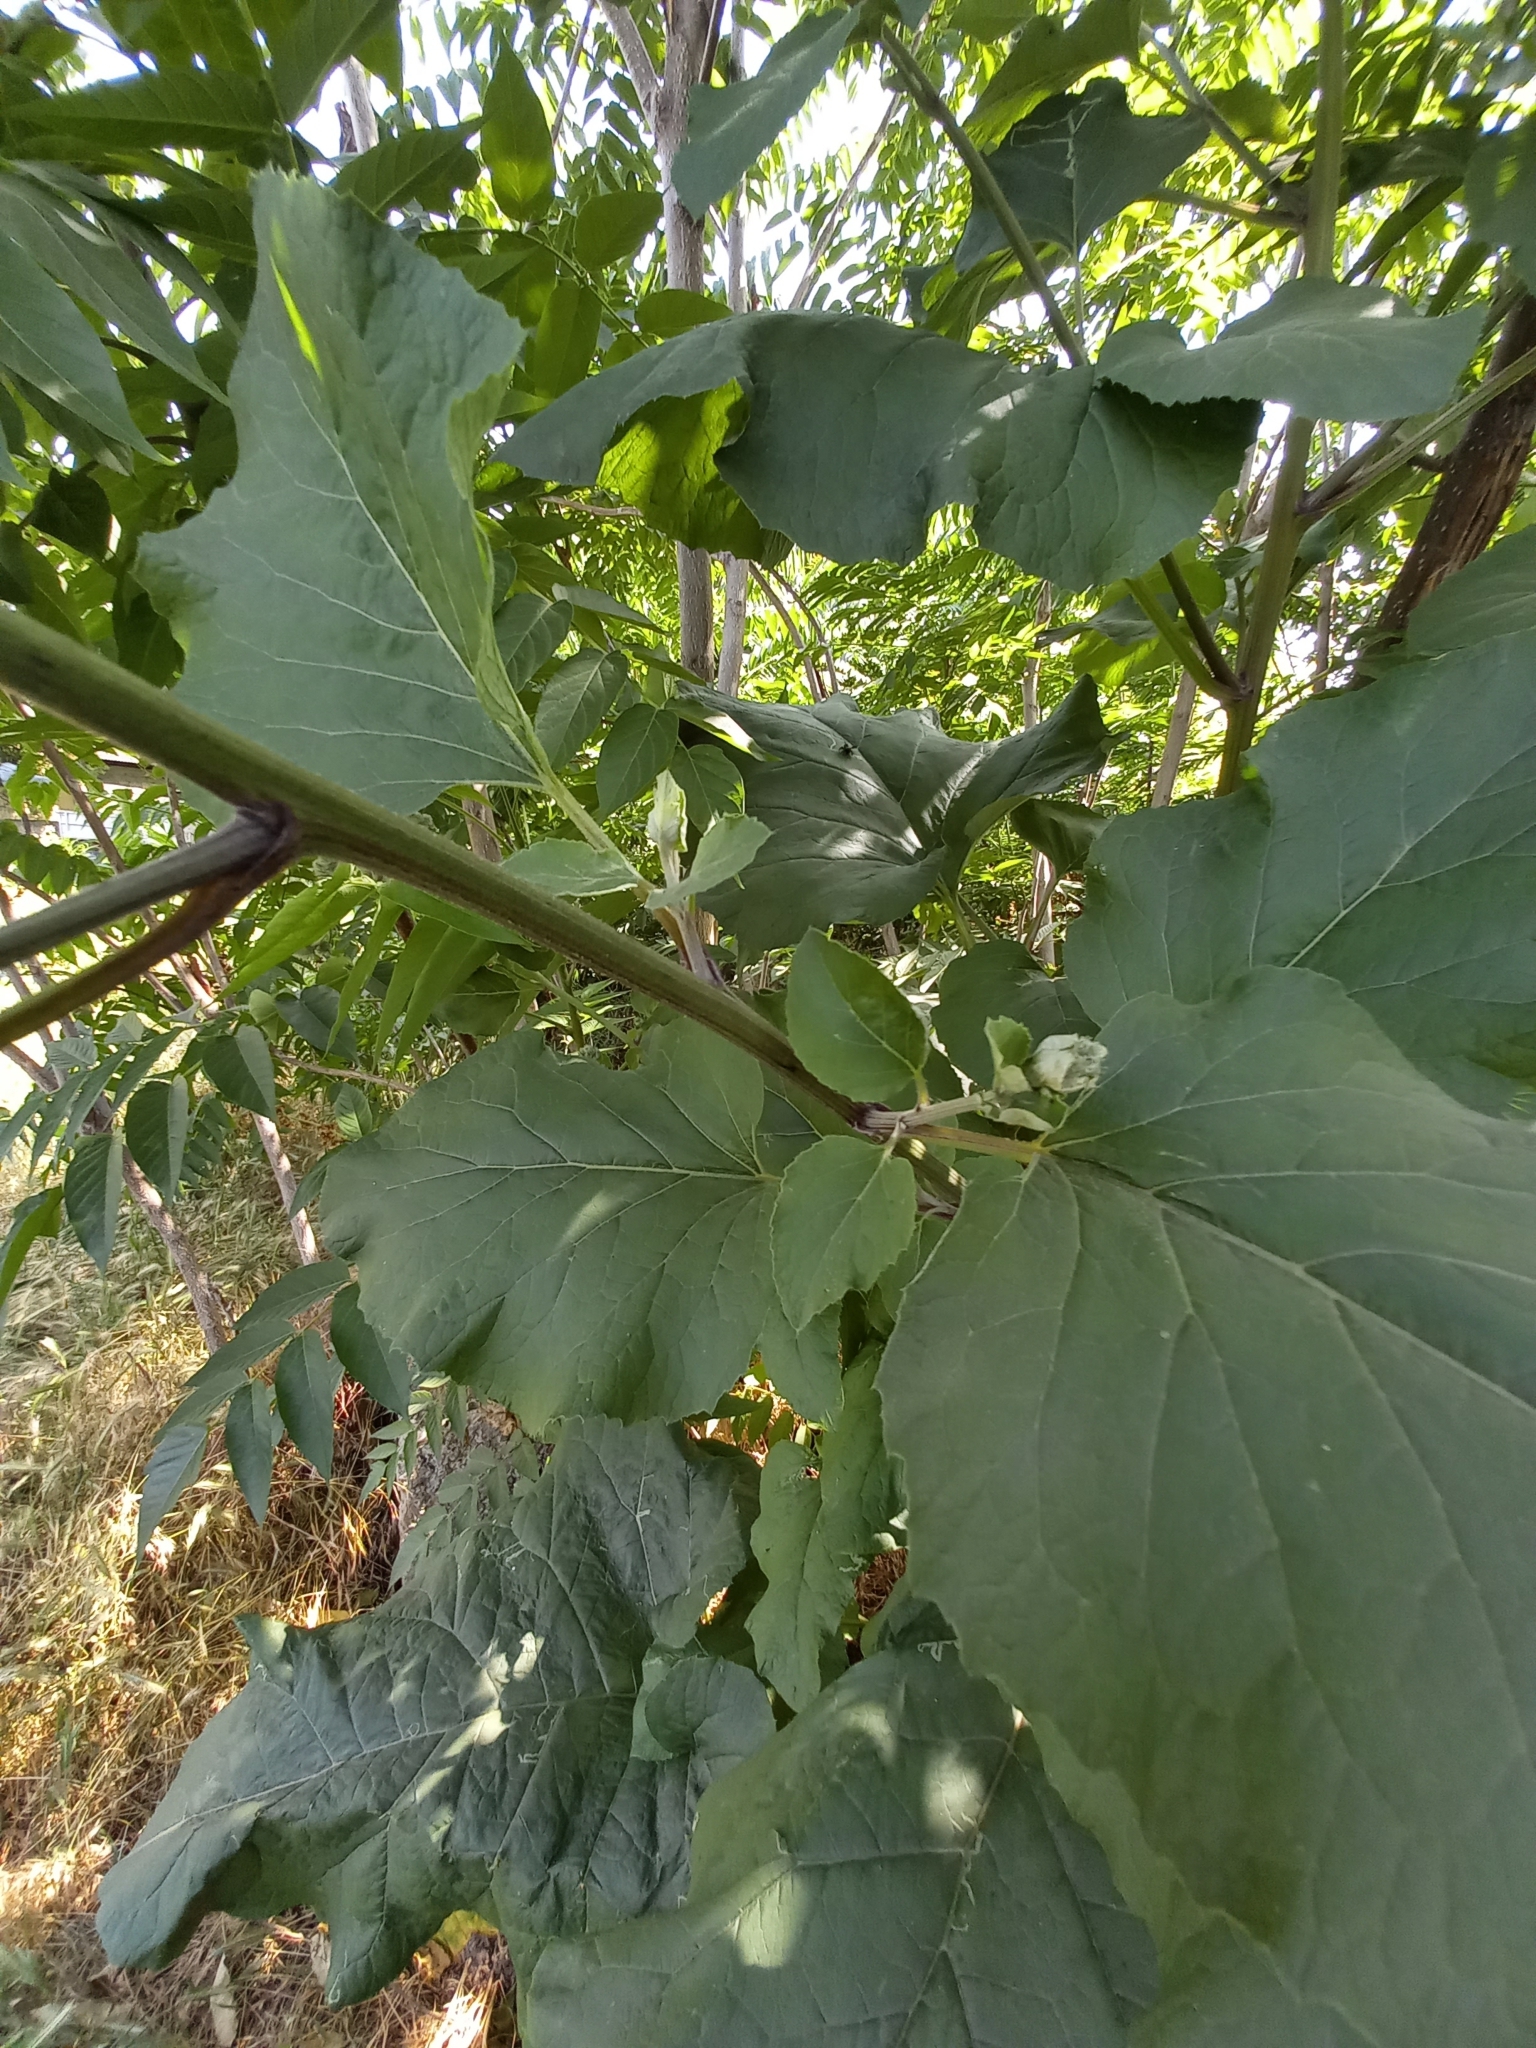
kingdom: Plantae
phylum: Tracheophyta
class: Magnoliopsida
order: Asterales
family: Asteraceae
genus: Arctium
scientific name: Arctium tomentosum
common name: Woolly burdock
